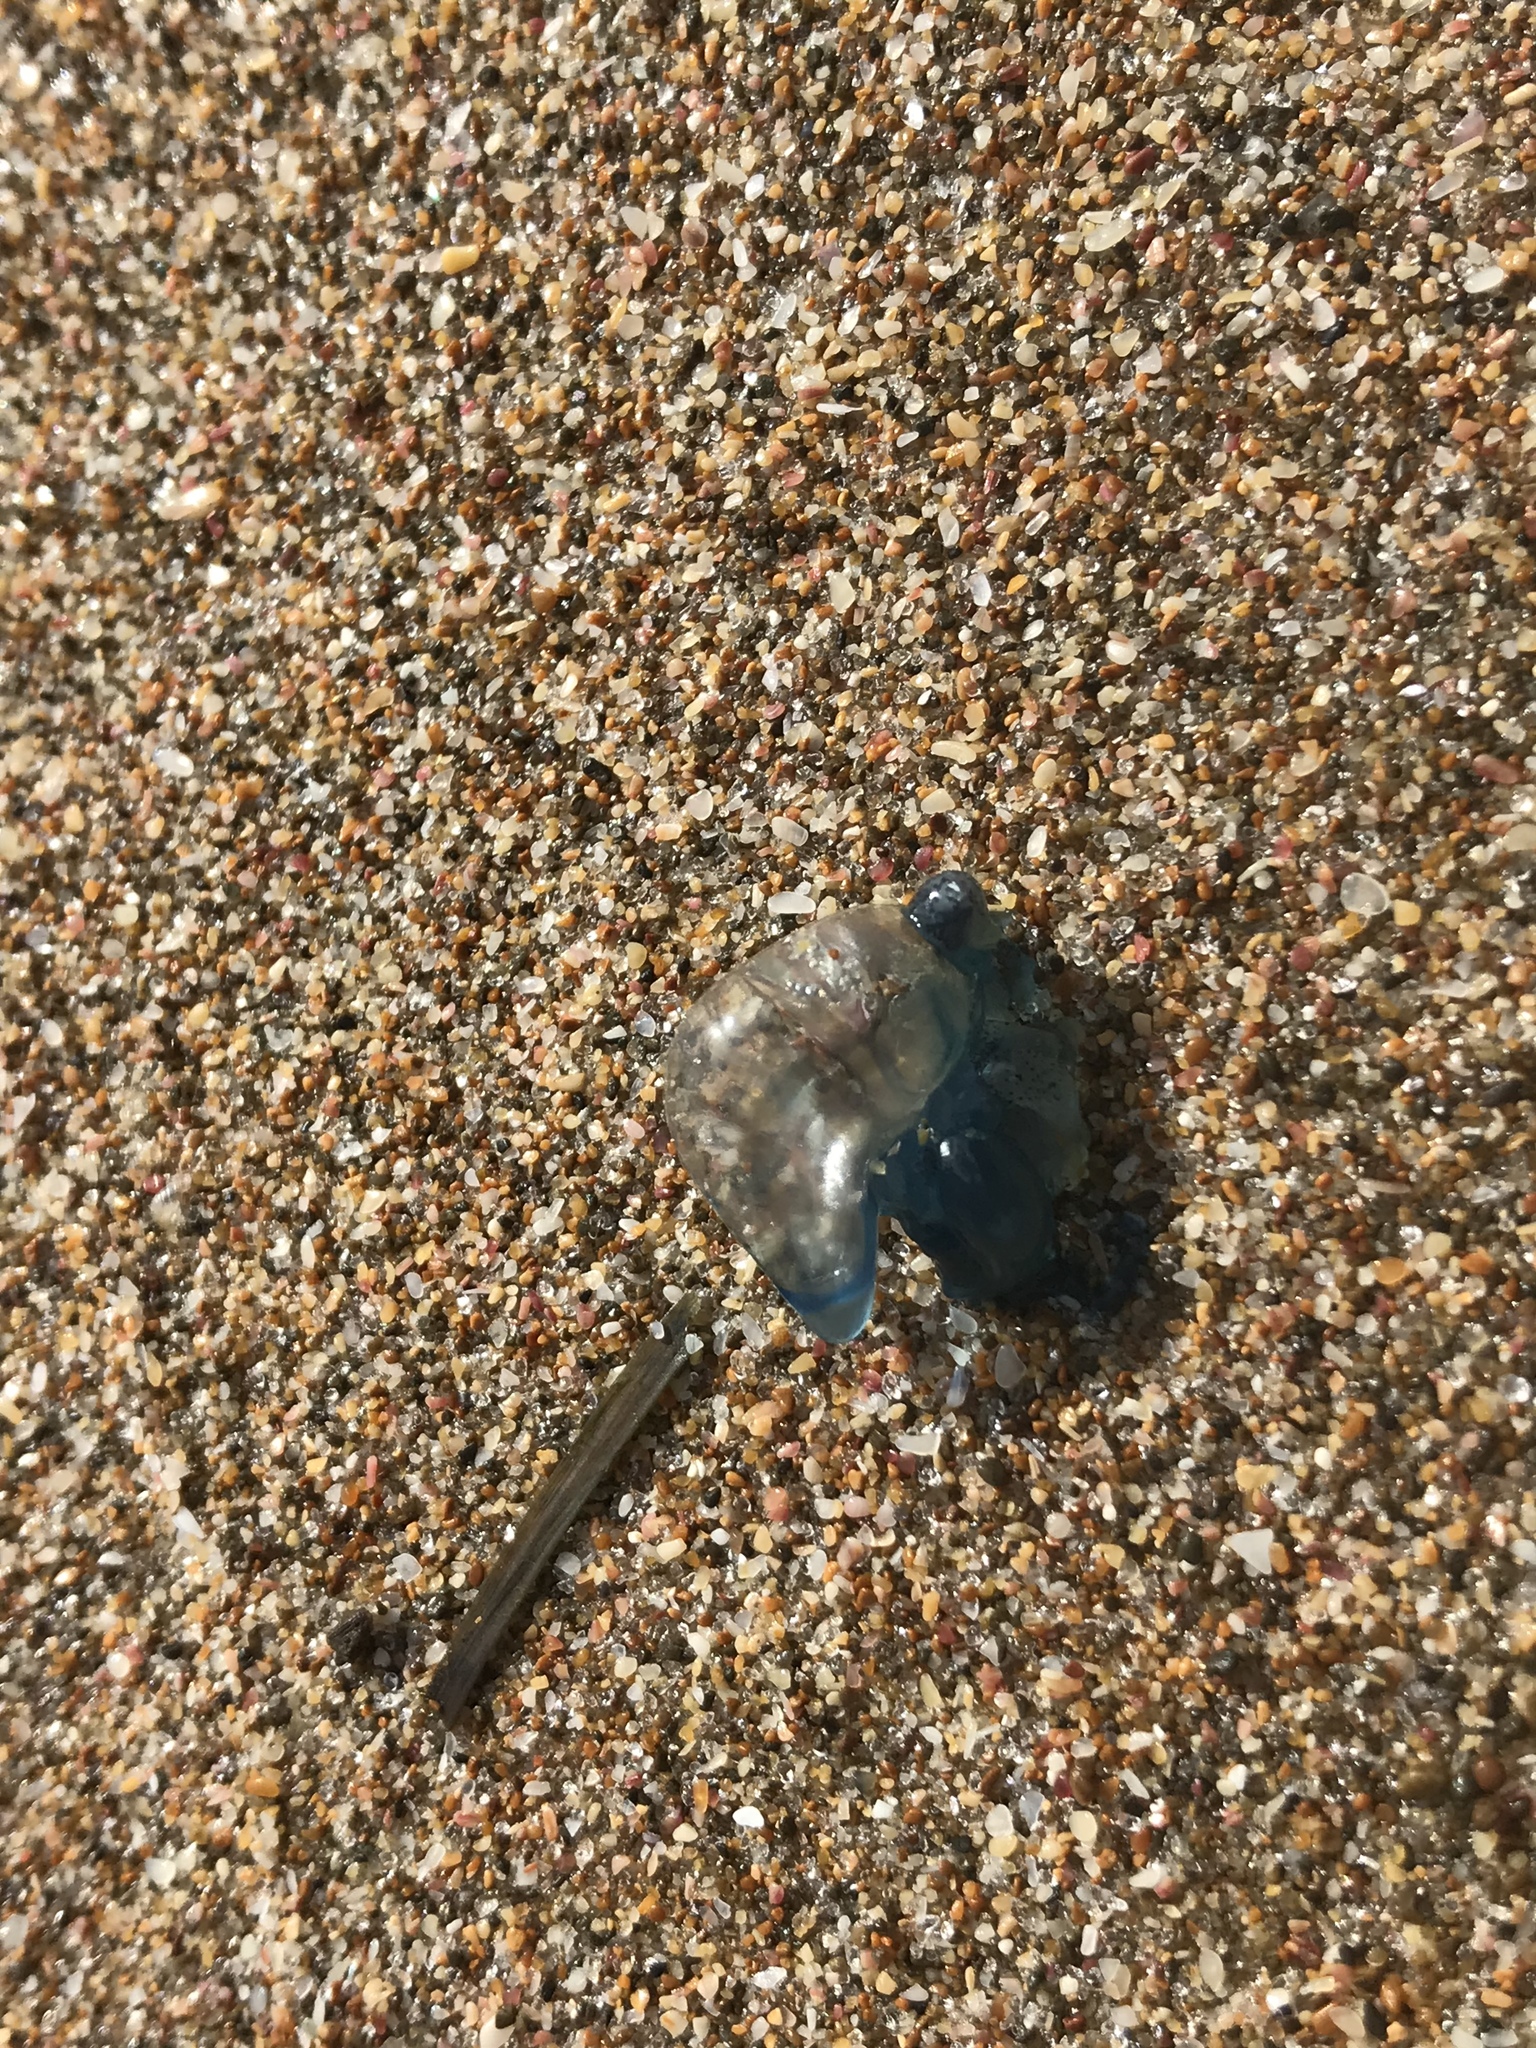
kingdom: Animalia
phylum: Cnidaria
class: Hydrozoa
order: Siphonophorae
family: Physaliidae
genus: Physalia
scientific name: Physalia physalis
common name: Portuguese man-of-war
